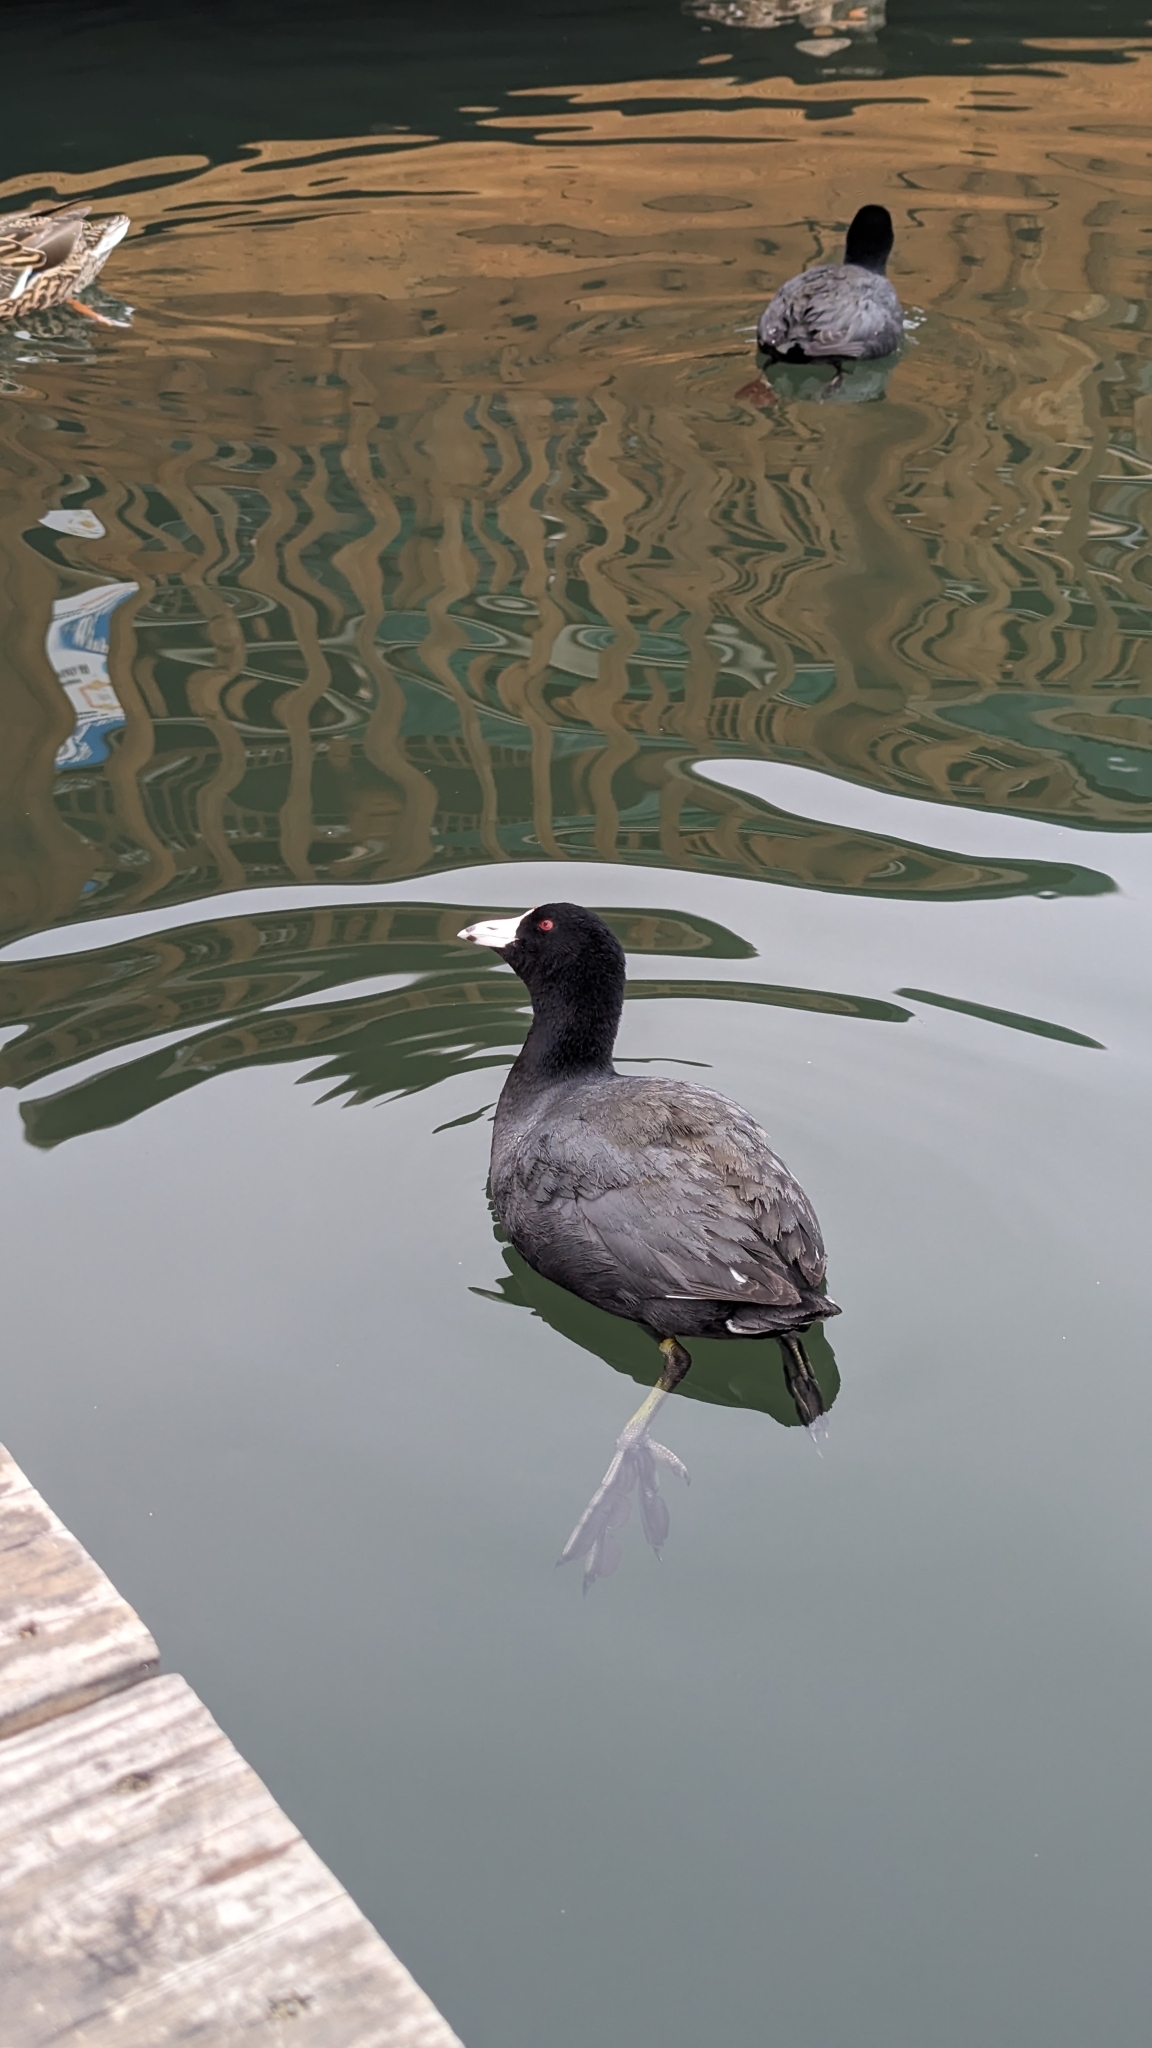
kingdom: Animalia
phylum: Chordata
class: Aves
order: Gruiformes
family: Rallidae
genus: Fulica
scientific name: Fulica americana
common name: American coot
